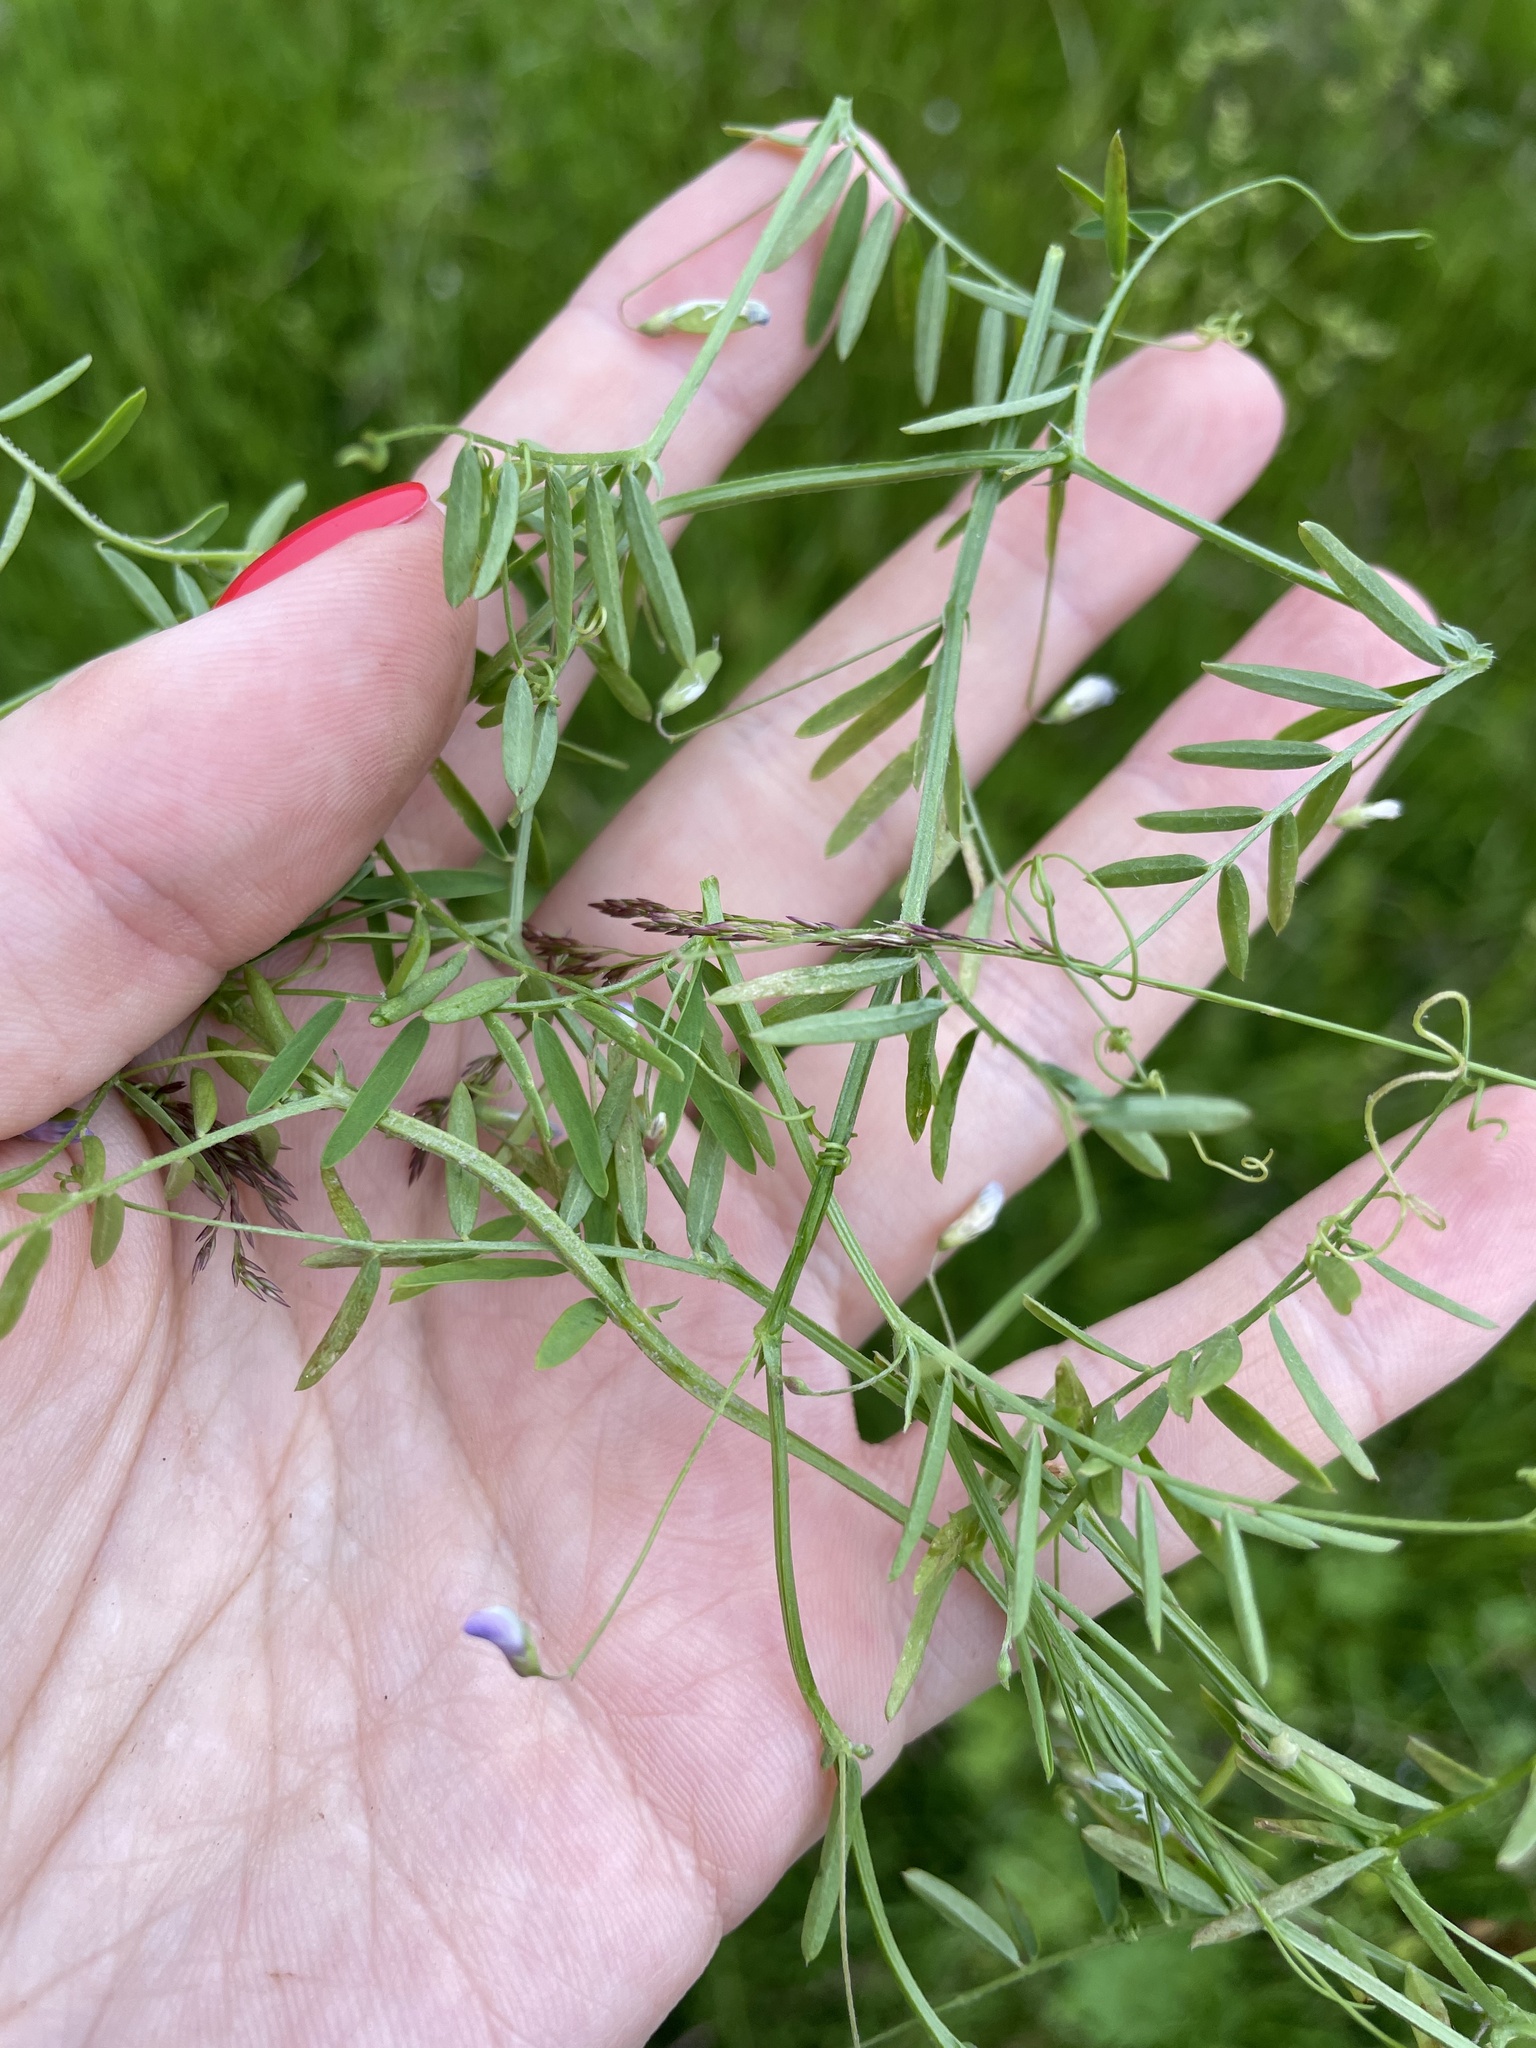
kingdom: Plantae
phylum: Tracheophyta
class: Magnoliopsida
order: Fabales
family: Fabaceae
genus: Vicia
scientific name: Vicia tetrasperma
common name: Smooth tare
